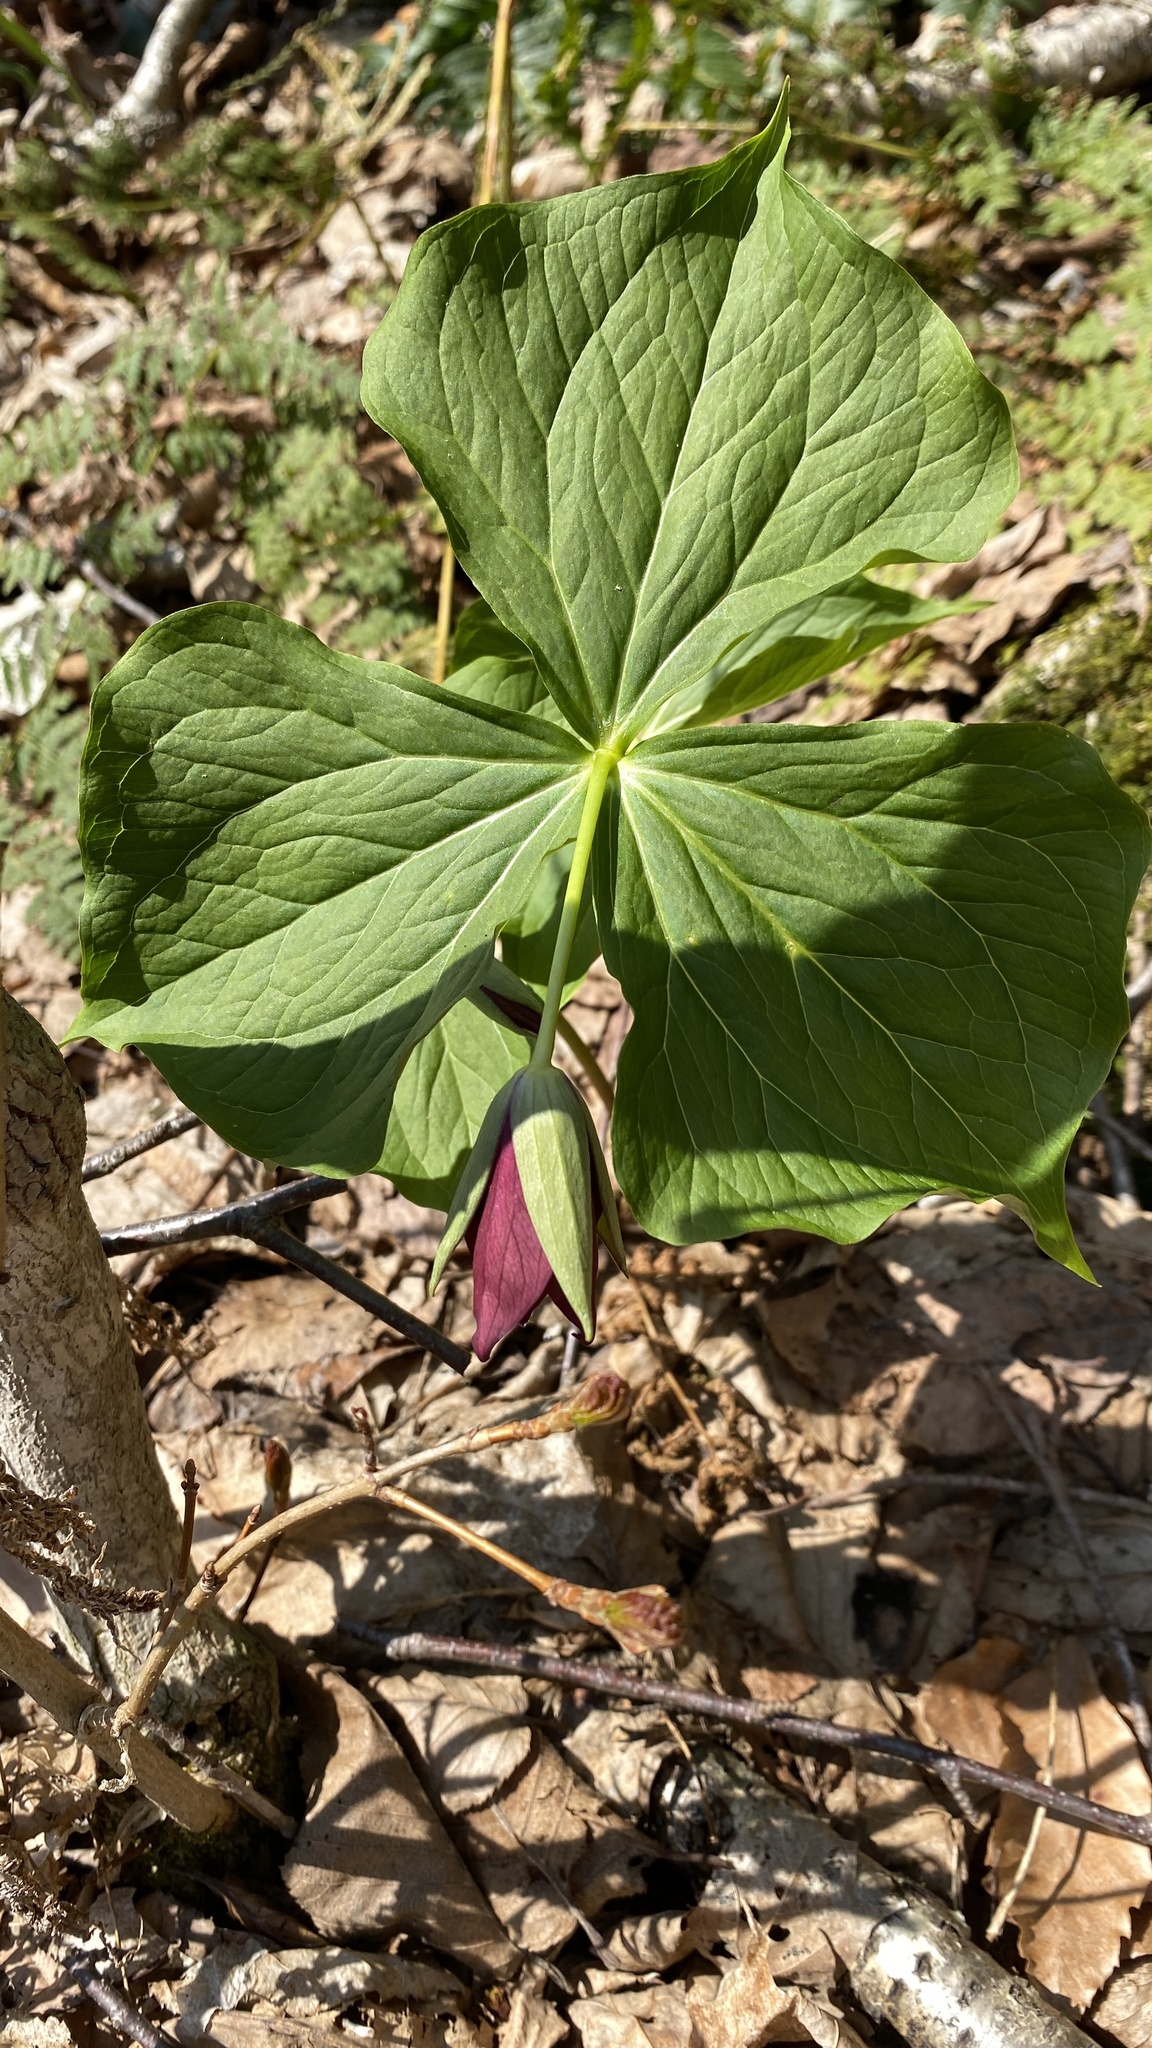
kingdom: Plantae
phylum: Tracheophyta
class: Liliopsida
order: Liliales
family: Melanthiaceae
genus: Trillium
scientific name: Trillium erectum
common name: Purple trillium
